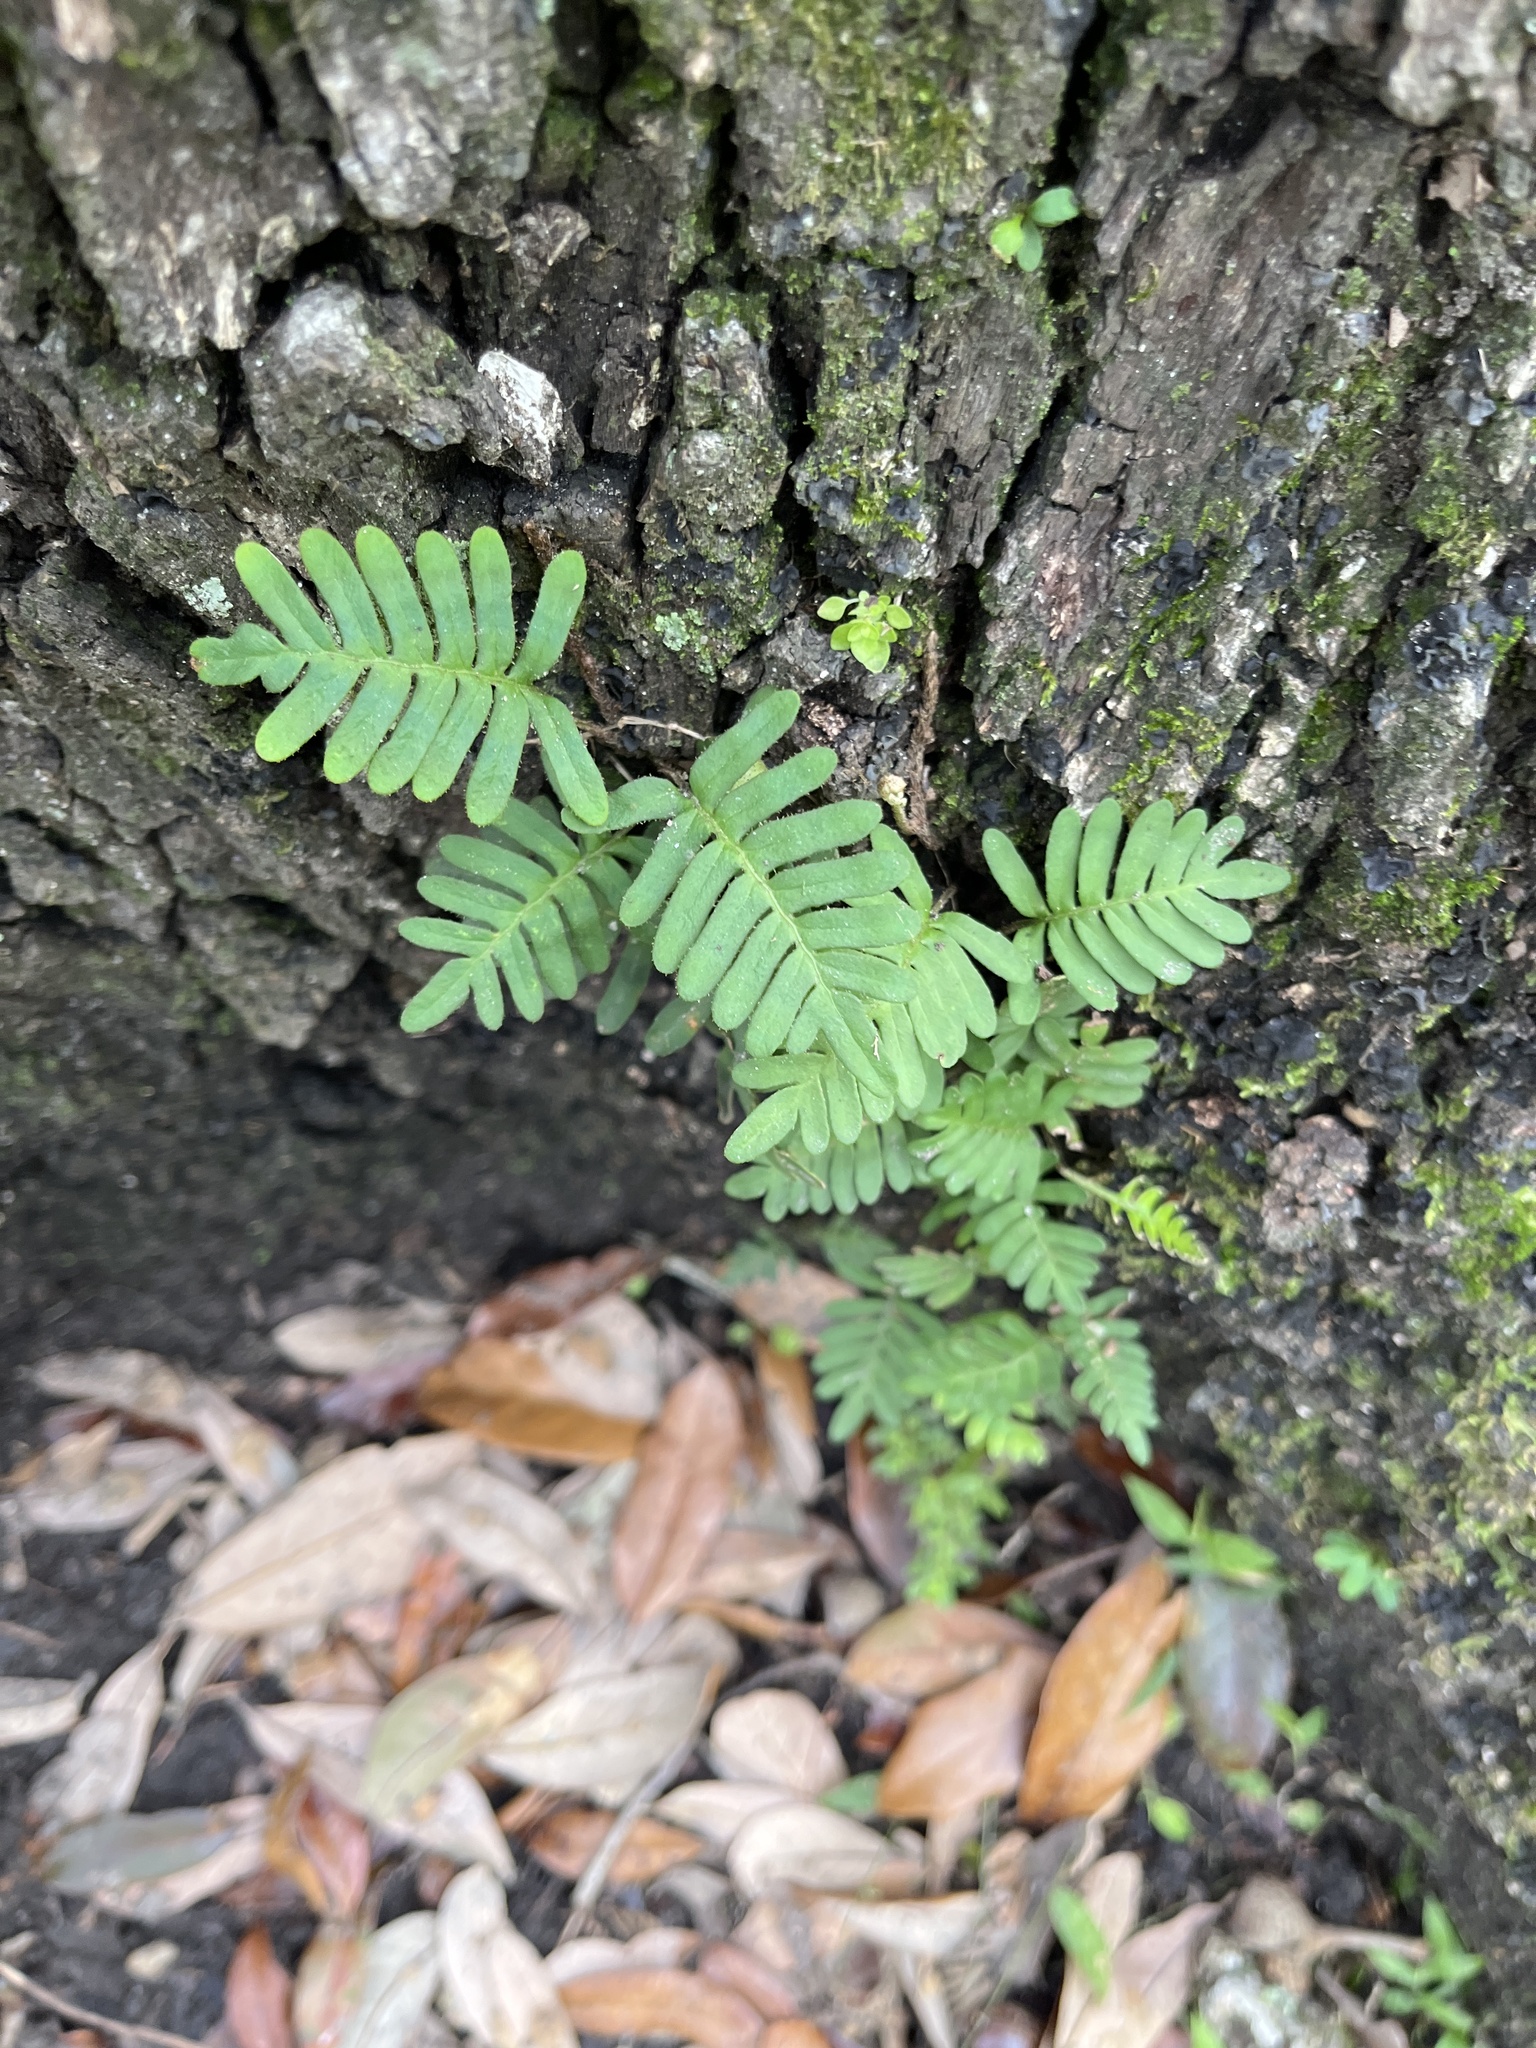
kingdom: Plantae
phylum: Tracheophyta
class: Polypodiopsida
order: Polypodiales
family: Polypodiaceae
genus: Pleopeltis
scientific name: Pleopeltis michauxiana
